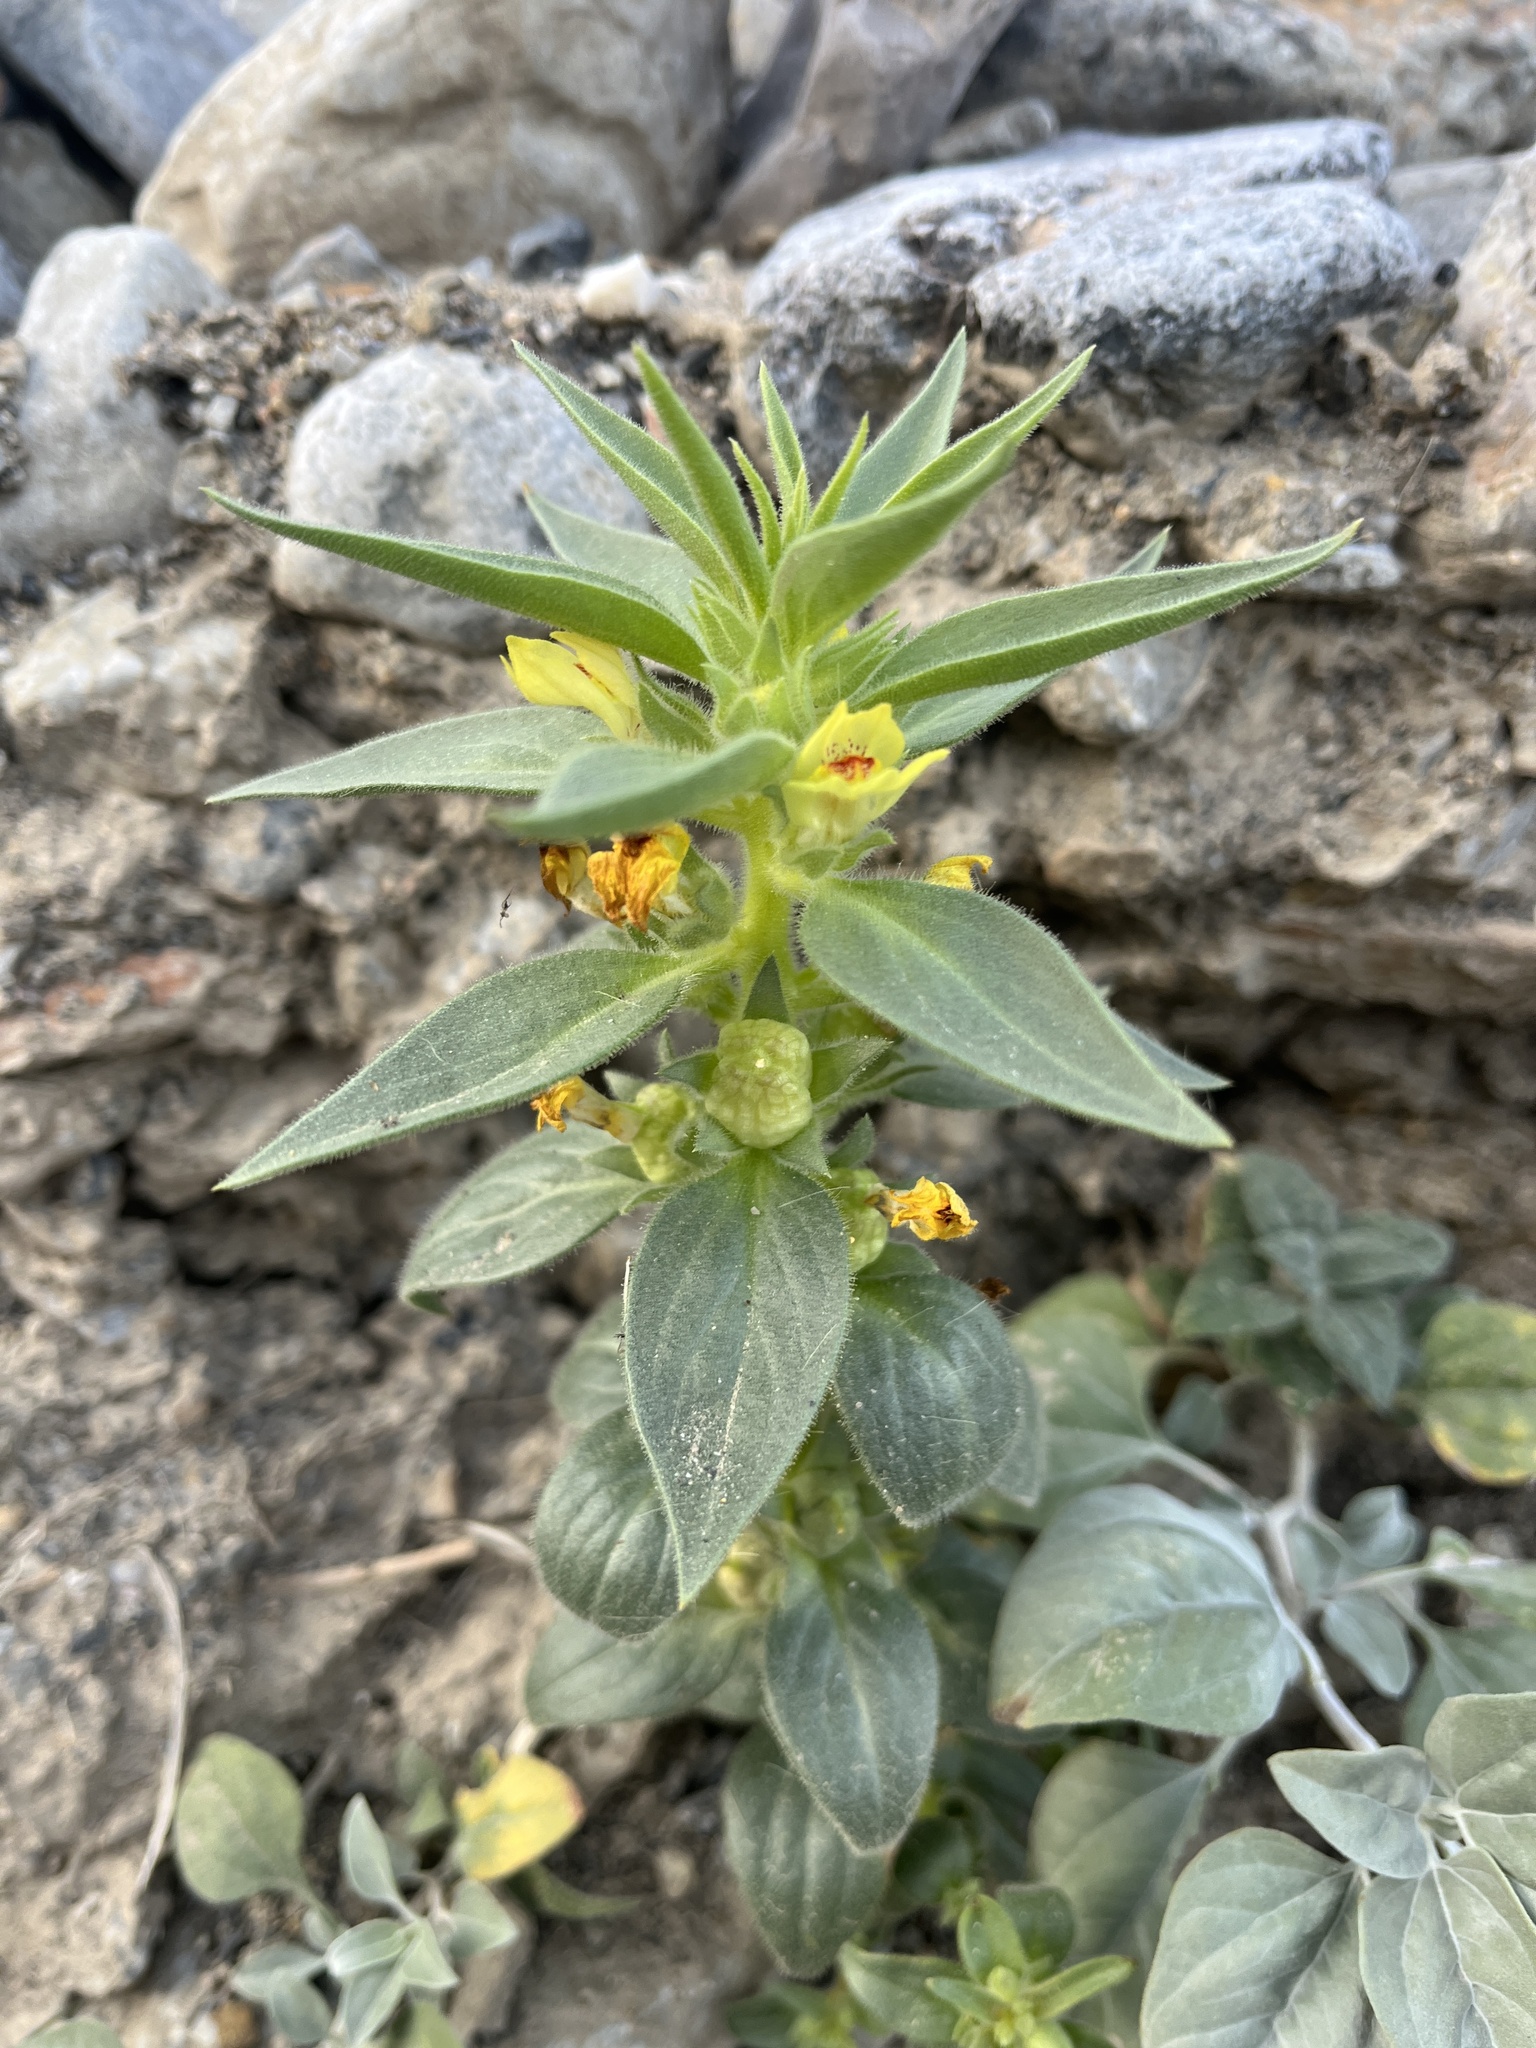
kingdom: Plantae
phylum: Tracheophyta
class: Magnoliopsida
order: Lamiales
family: Plantaginaceae
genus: Mohavea
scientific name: Mohavea breviflora
